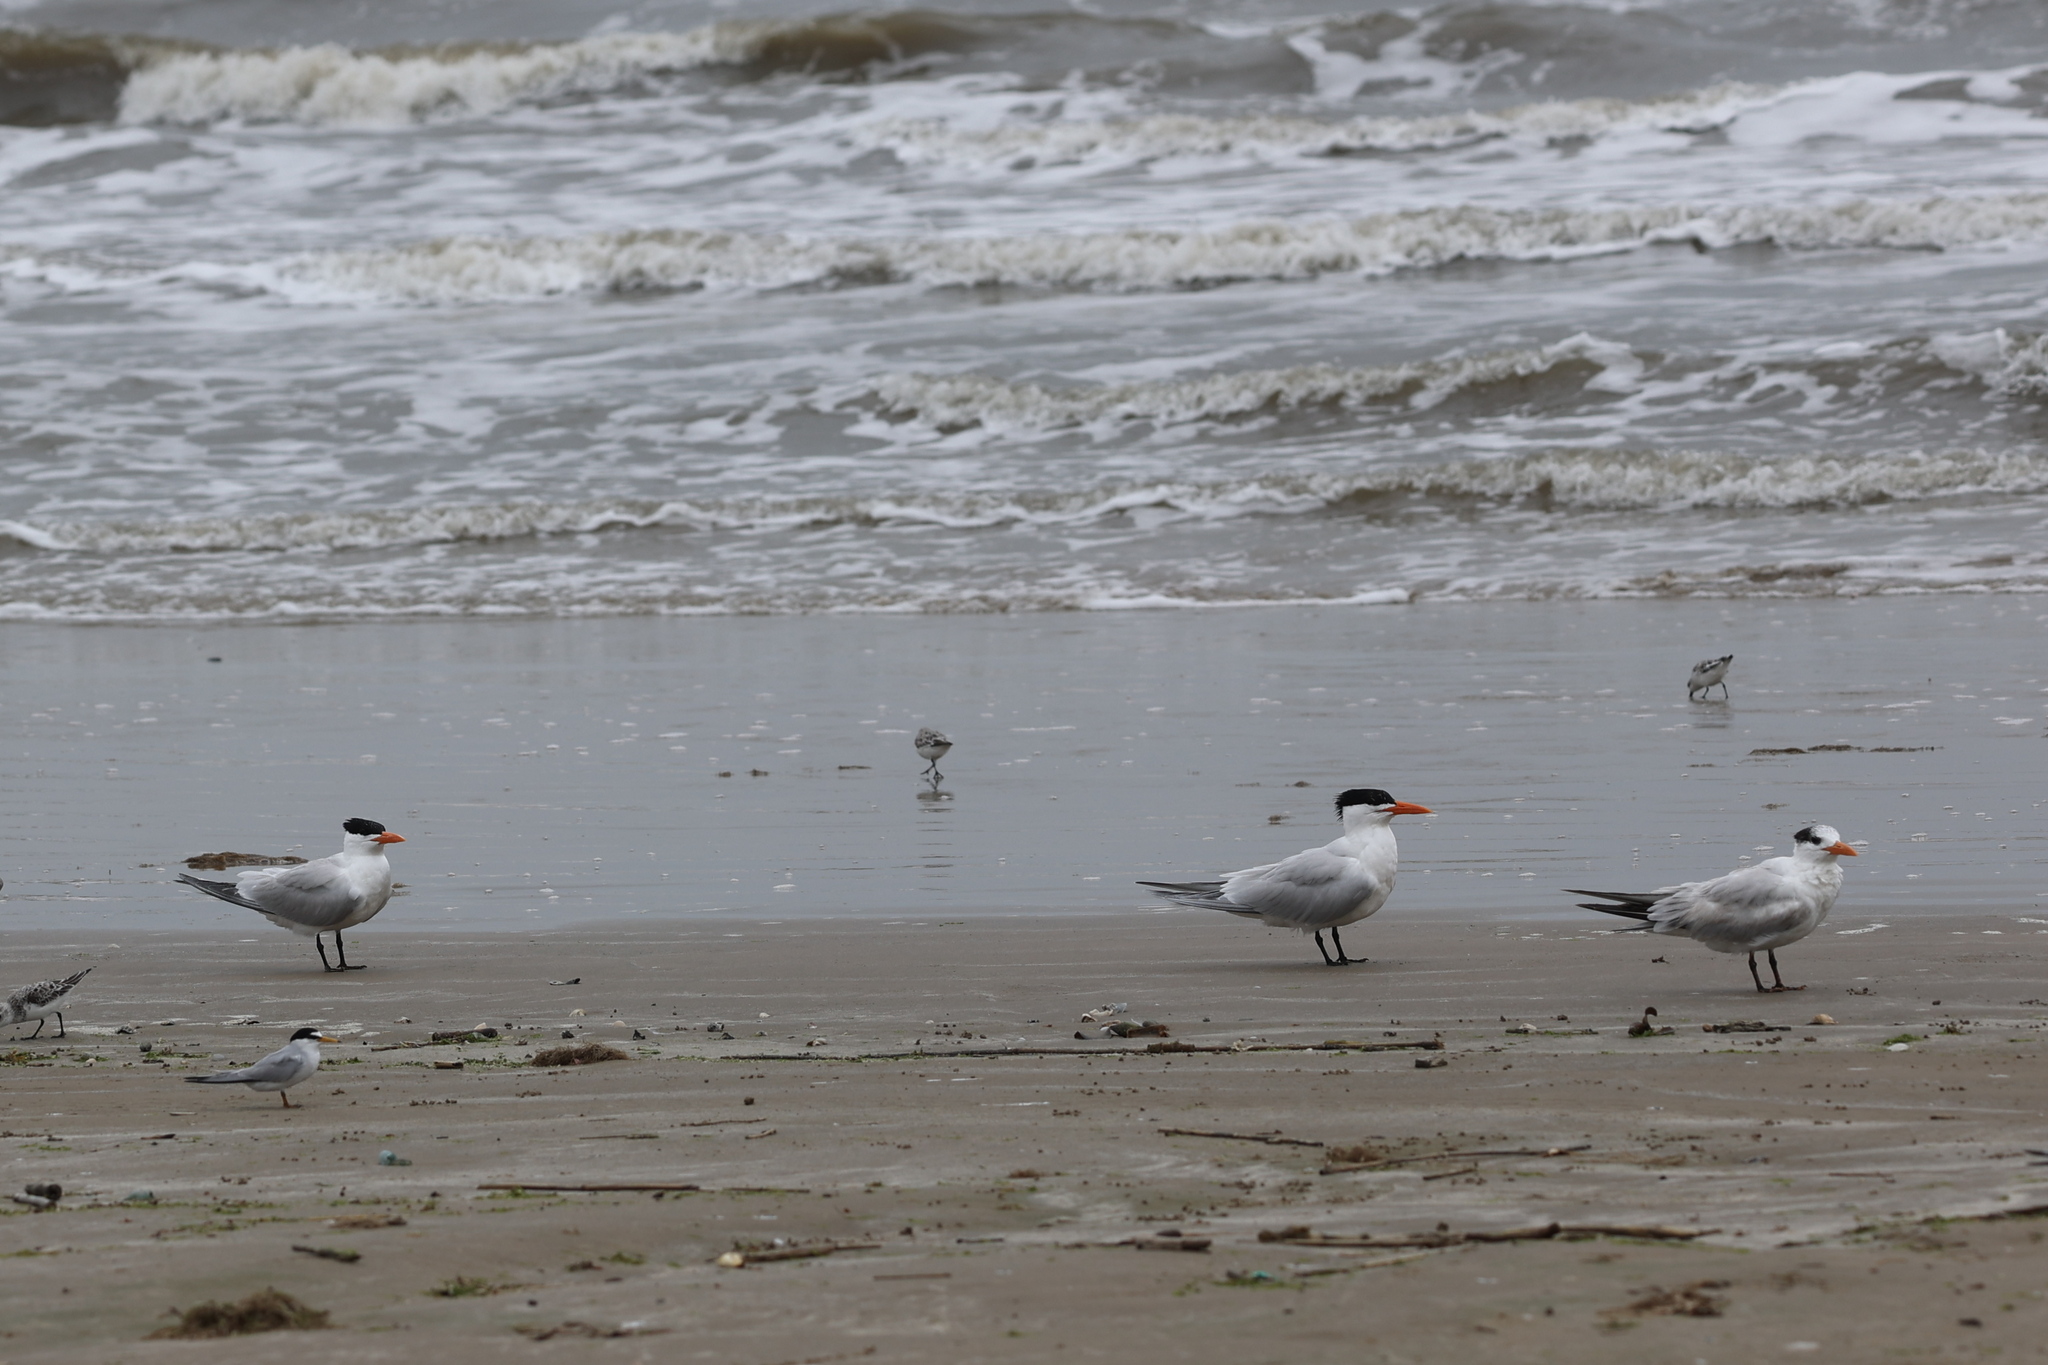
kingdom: Animalia
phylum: Chordata
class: Aves
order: Charadriiformes
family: Laridae
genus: Thalasseus
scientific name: Thalasseus maximus
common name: Royal tern
